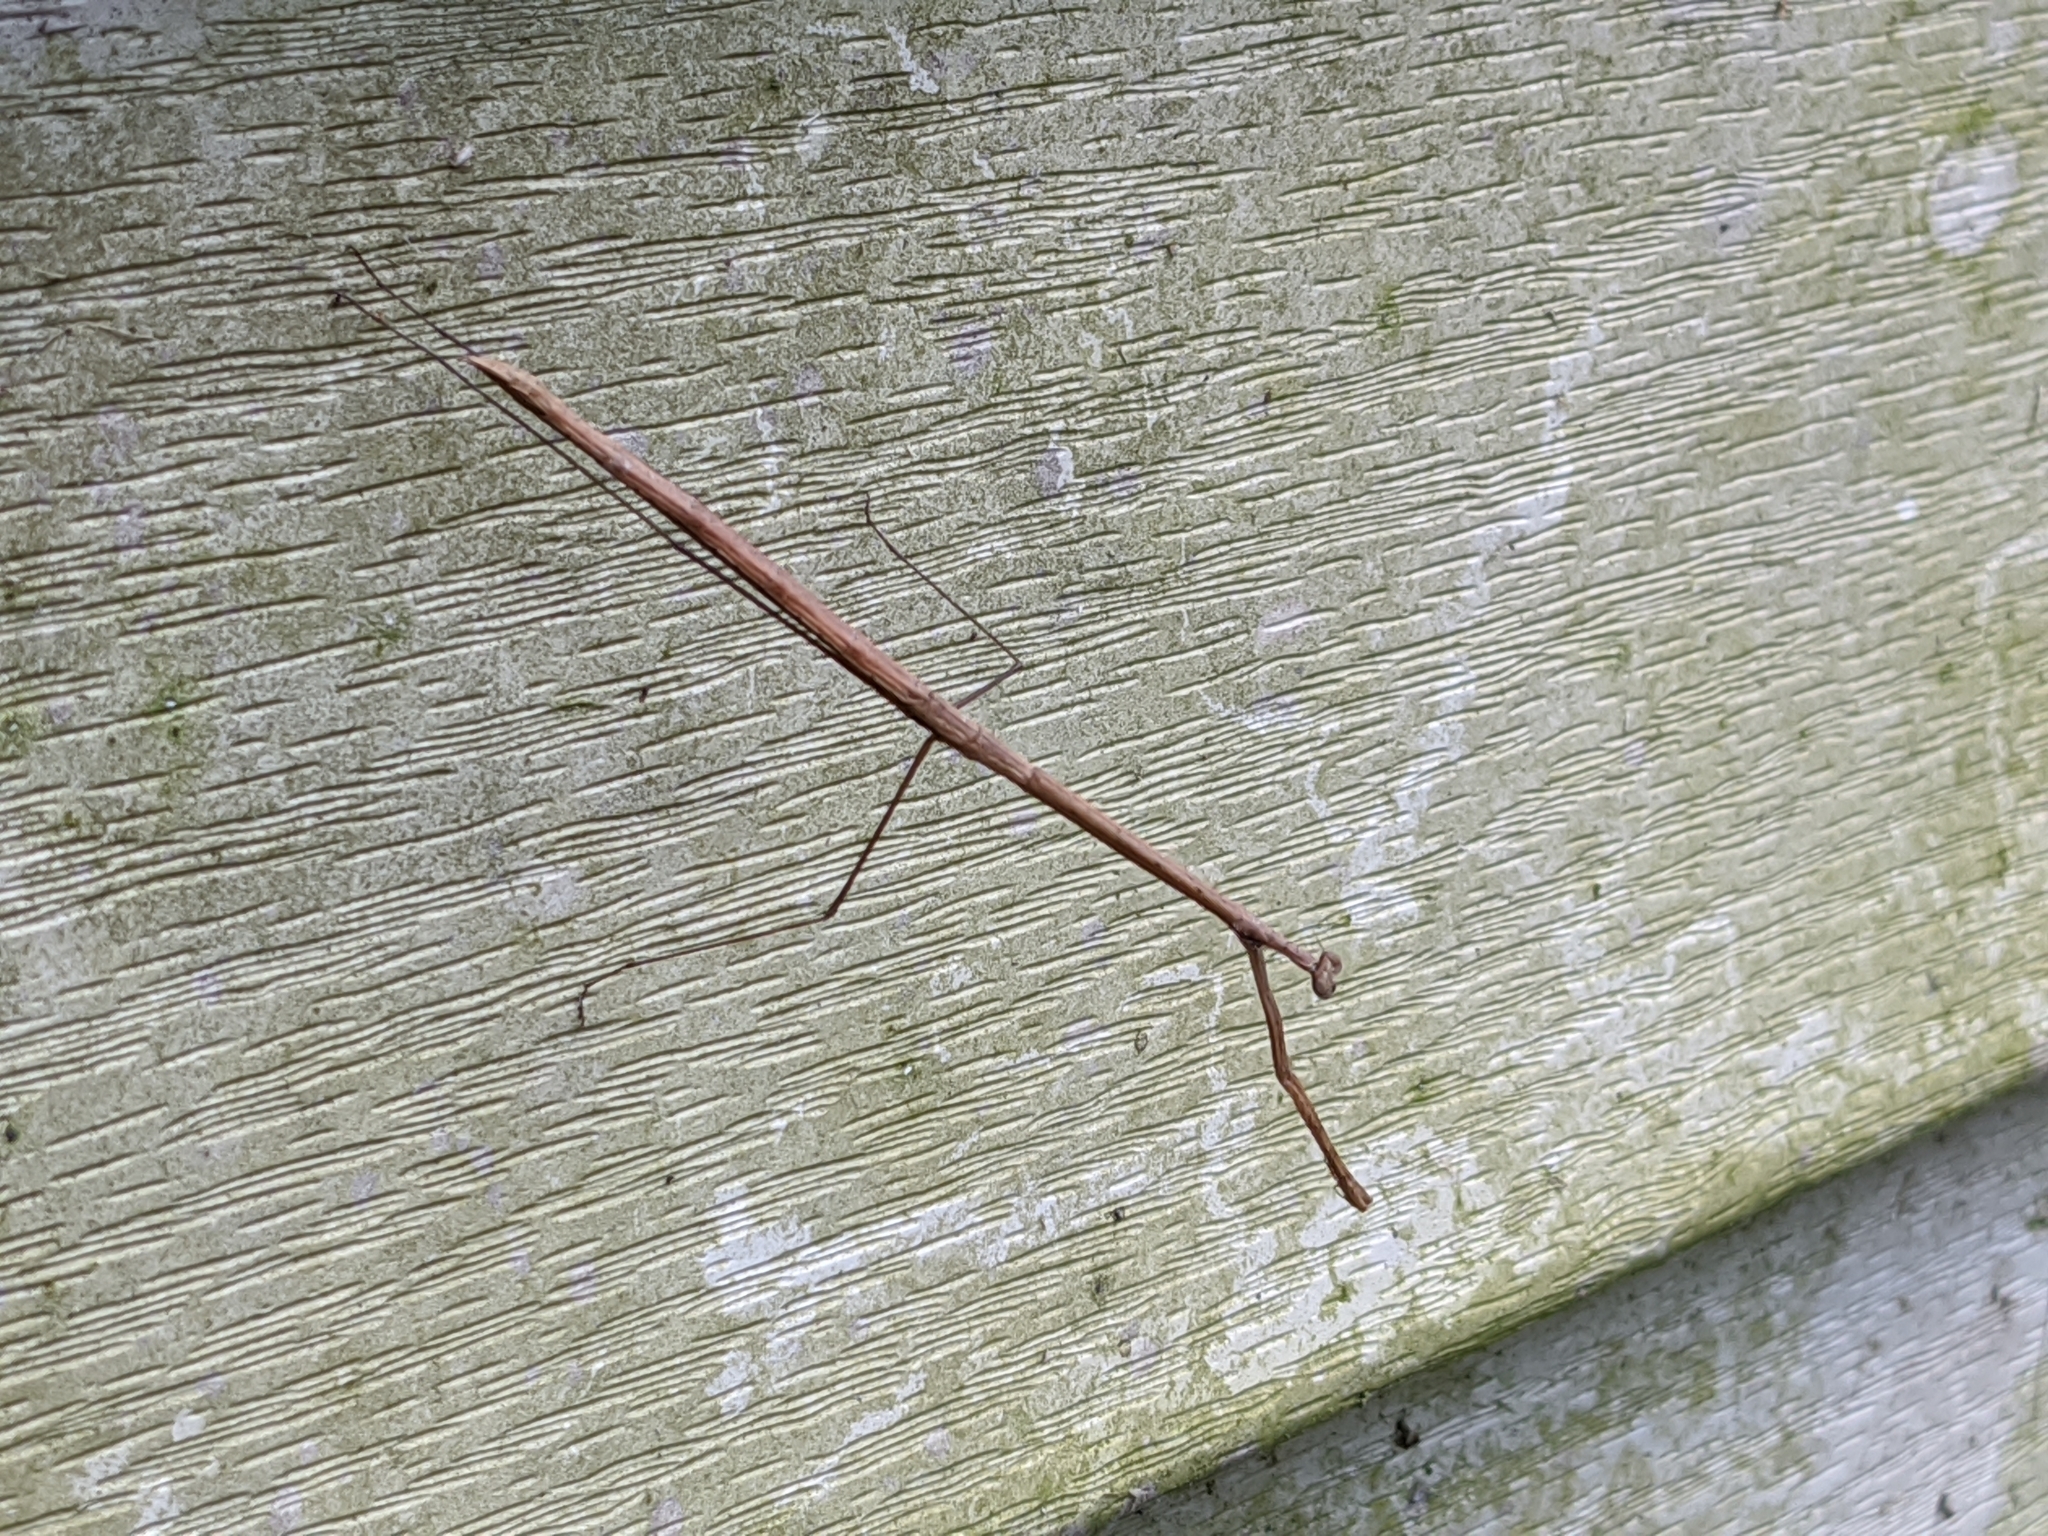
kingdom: Animalia
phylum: Arthropoda
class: Insecta
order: Mantodea
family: Thespidae
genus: Thesprotia
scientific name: Thesprotia graminis
